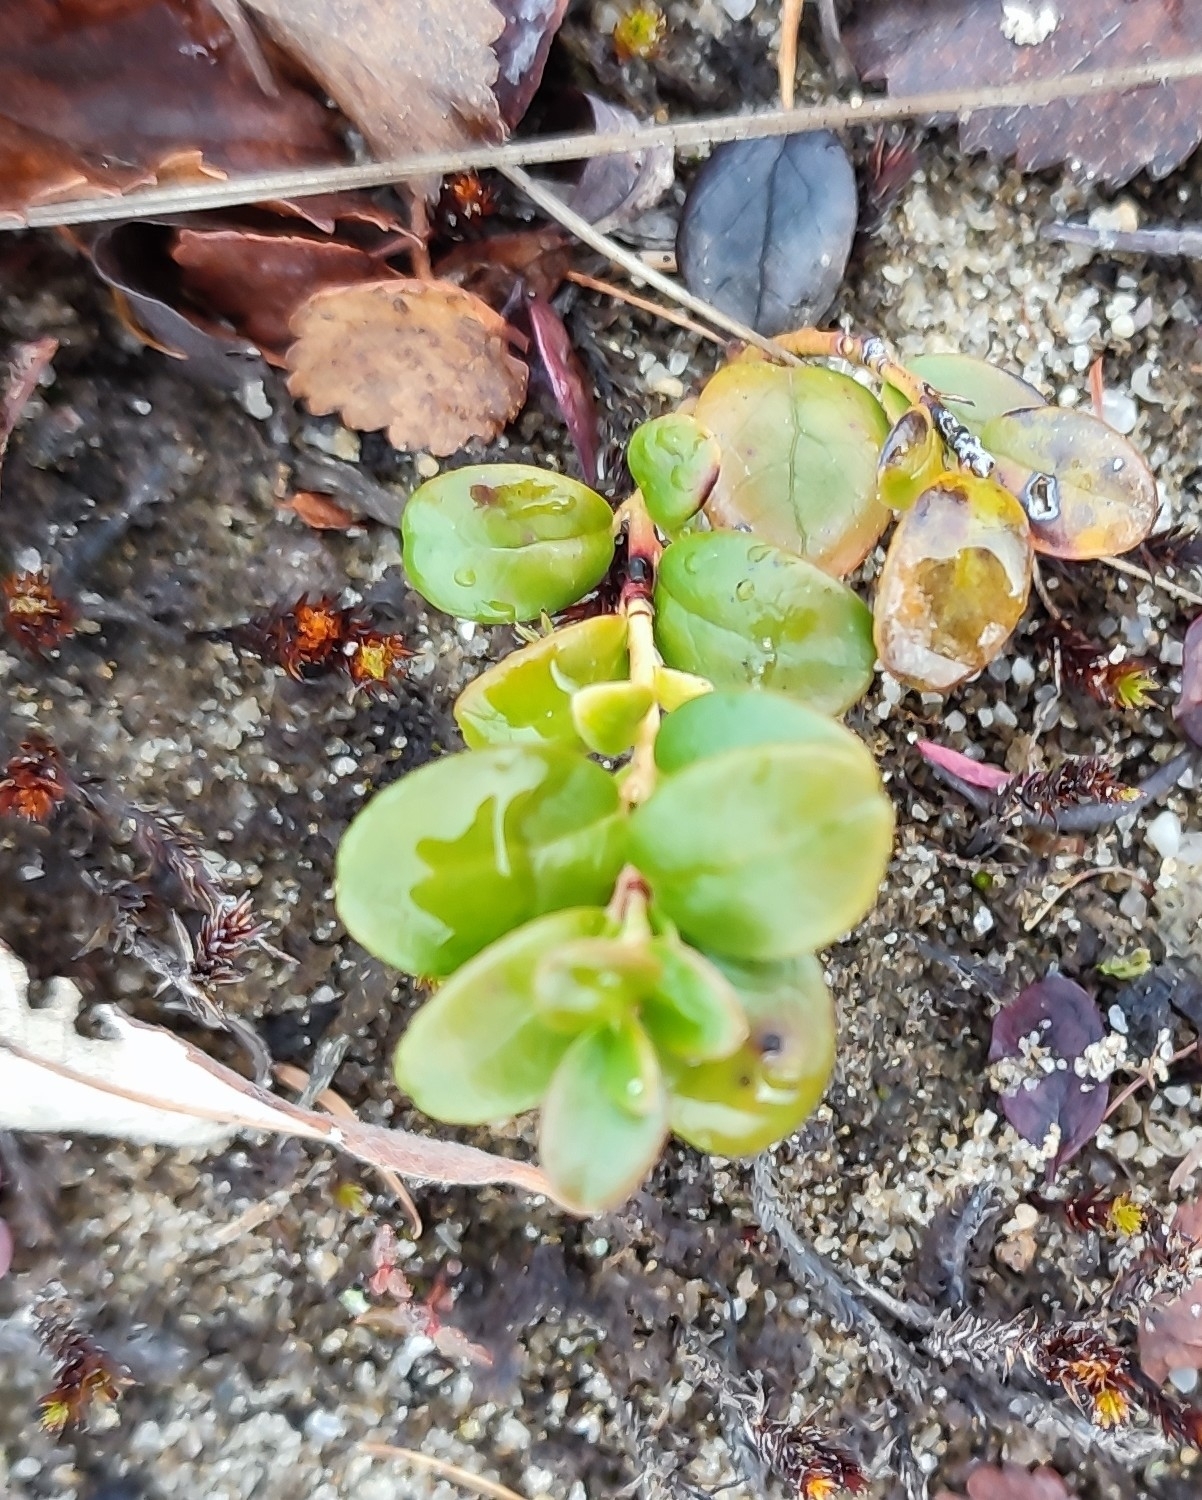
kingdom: Plantae
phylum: Tracheophyta
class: Magnoliopsida
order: Ericales
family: Ericaceae
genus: Vaccinium
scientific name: Vaccinium vitis-idaea
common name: Cowberry
